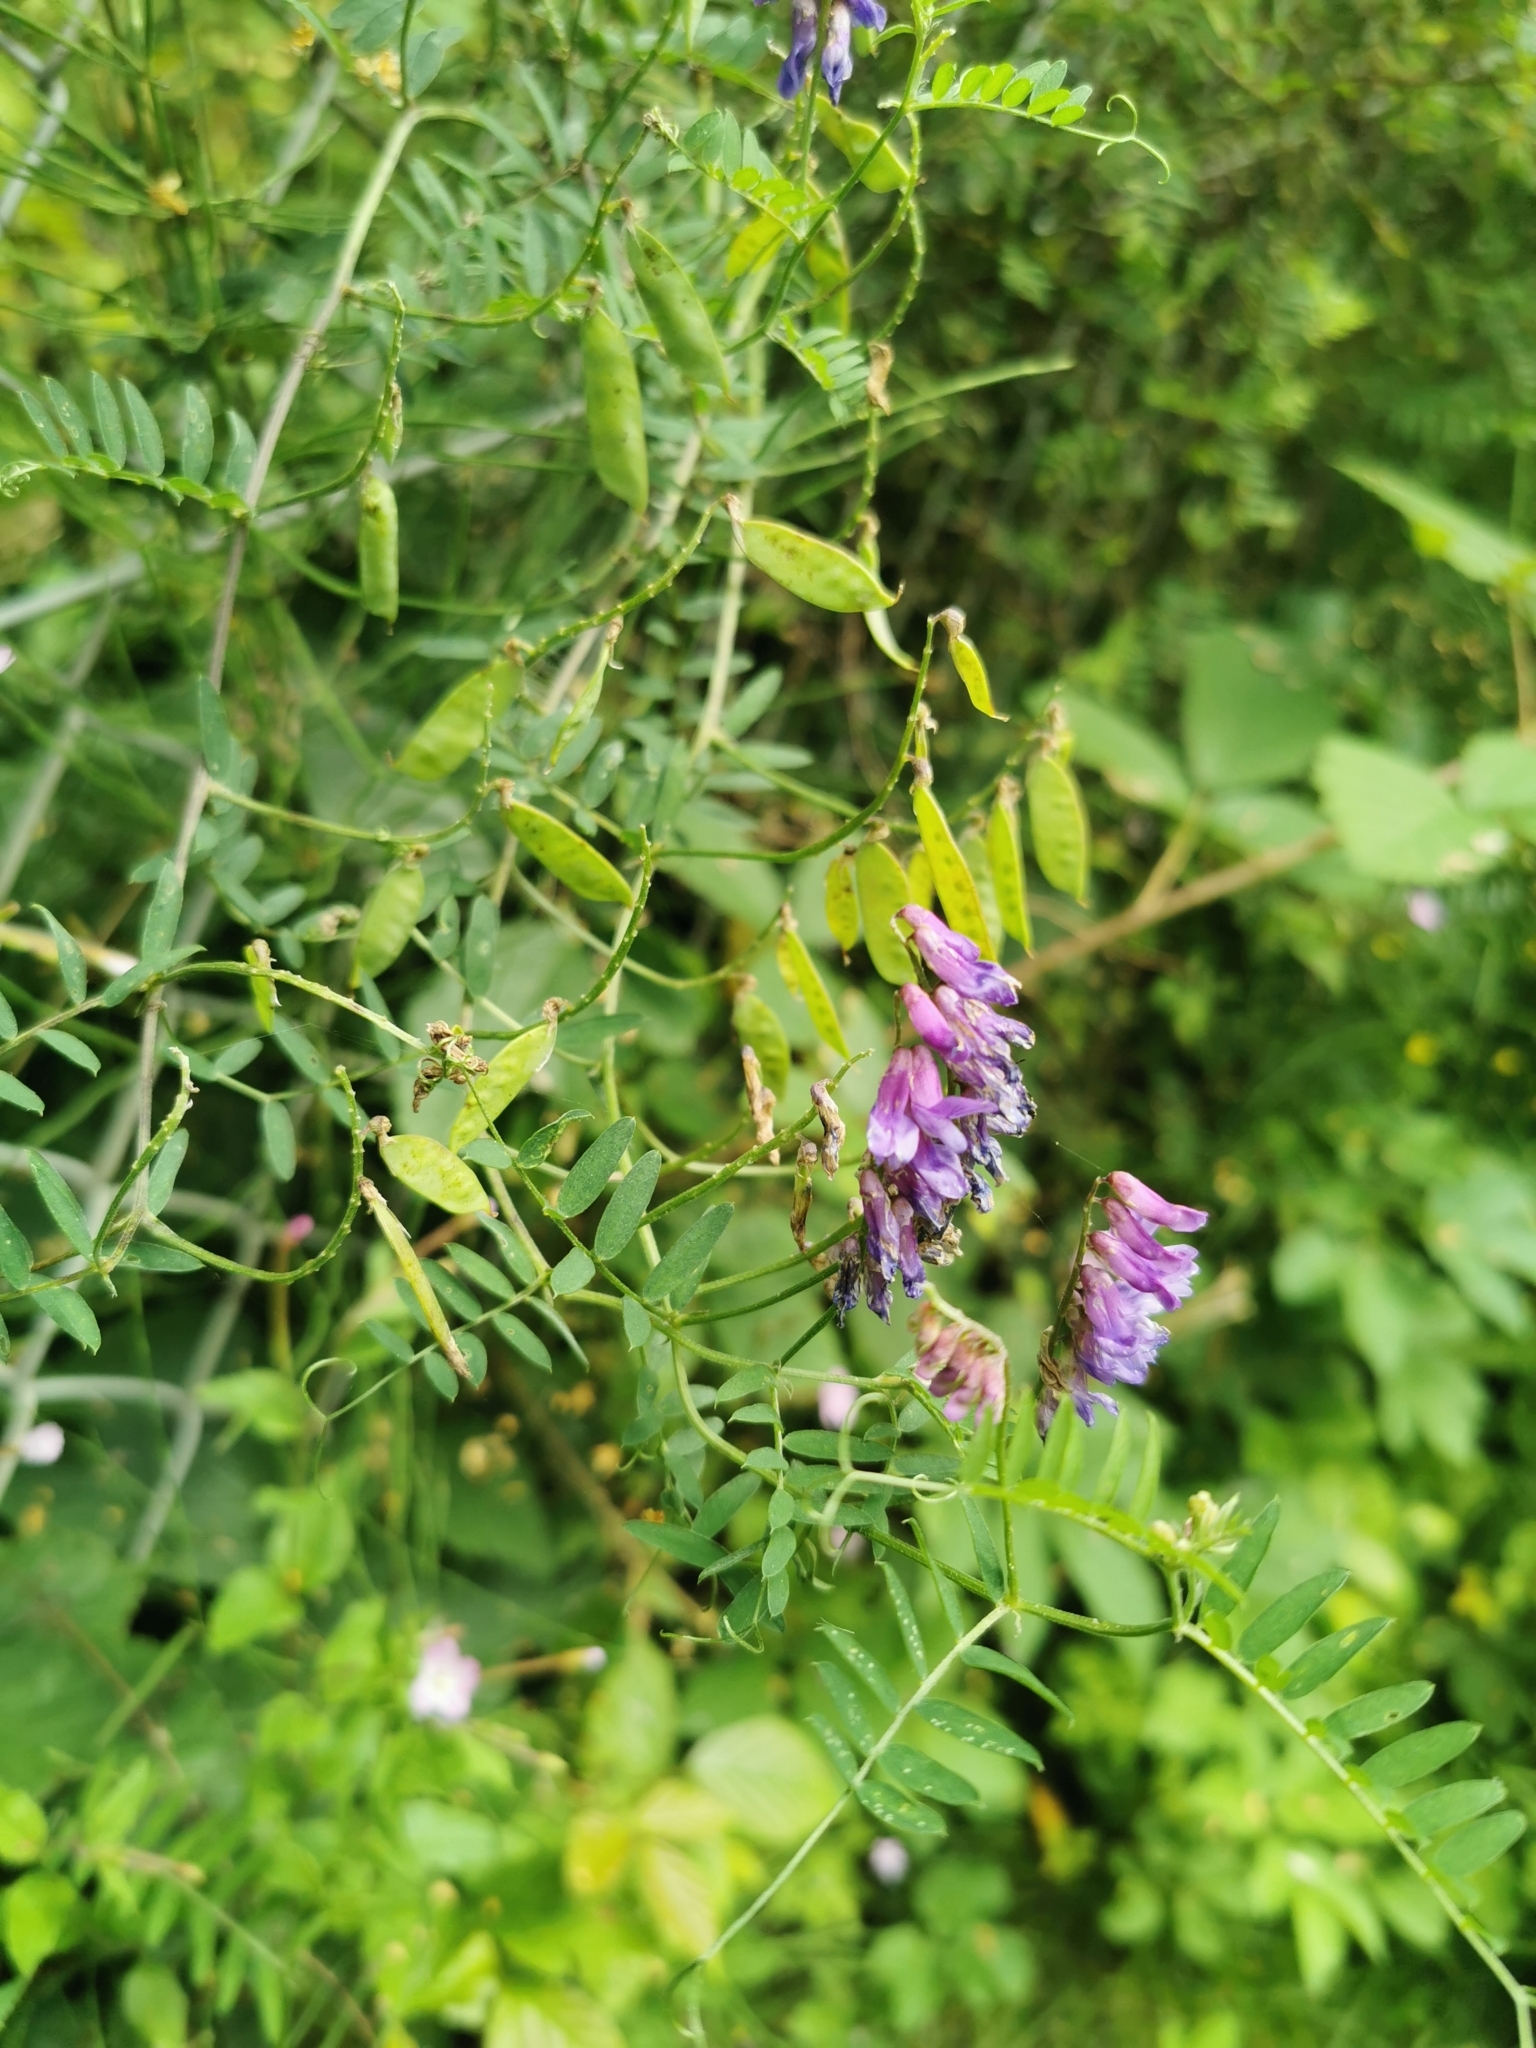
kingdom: Plantae
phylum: Tracheophyta
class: Magnoliopsida
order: Fabales
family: Fabaceae
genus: Vicia
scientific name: Vicia cracca
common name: Bird vetch
